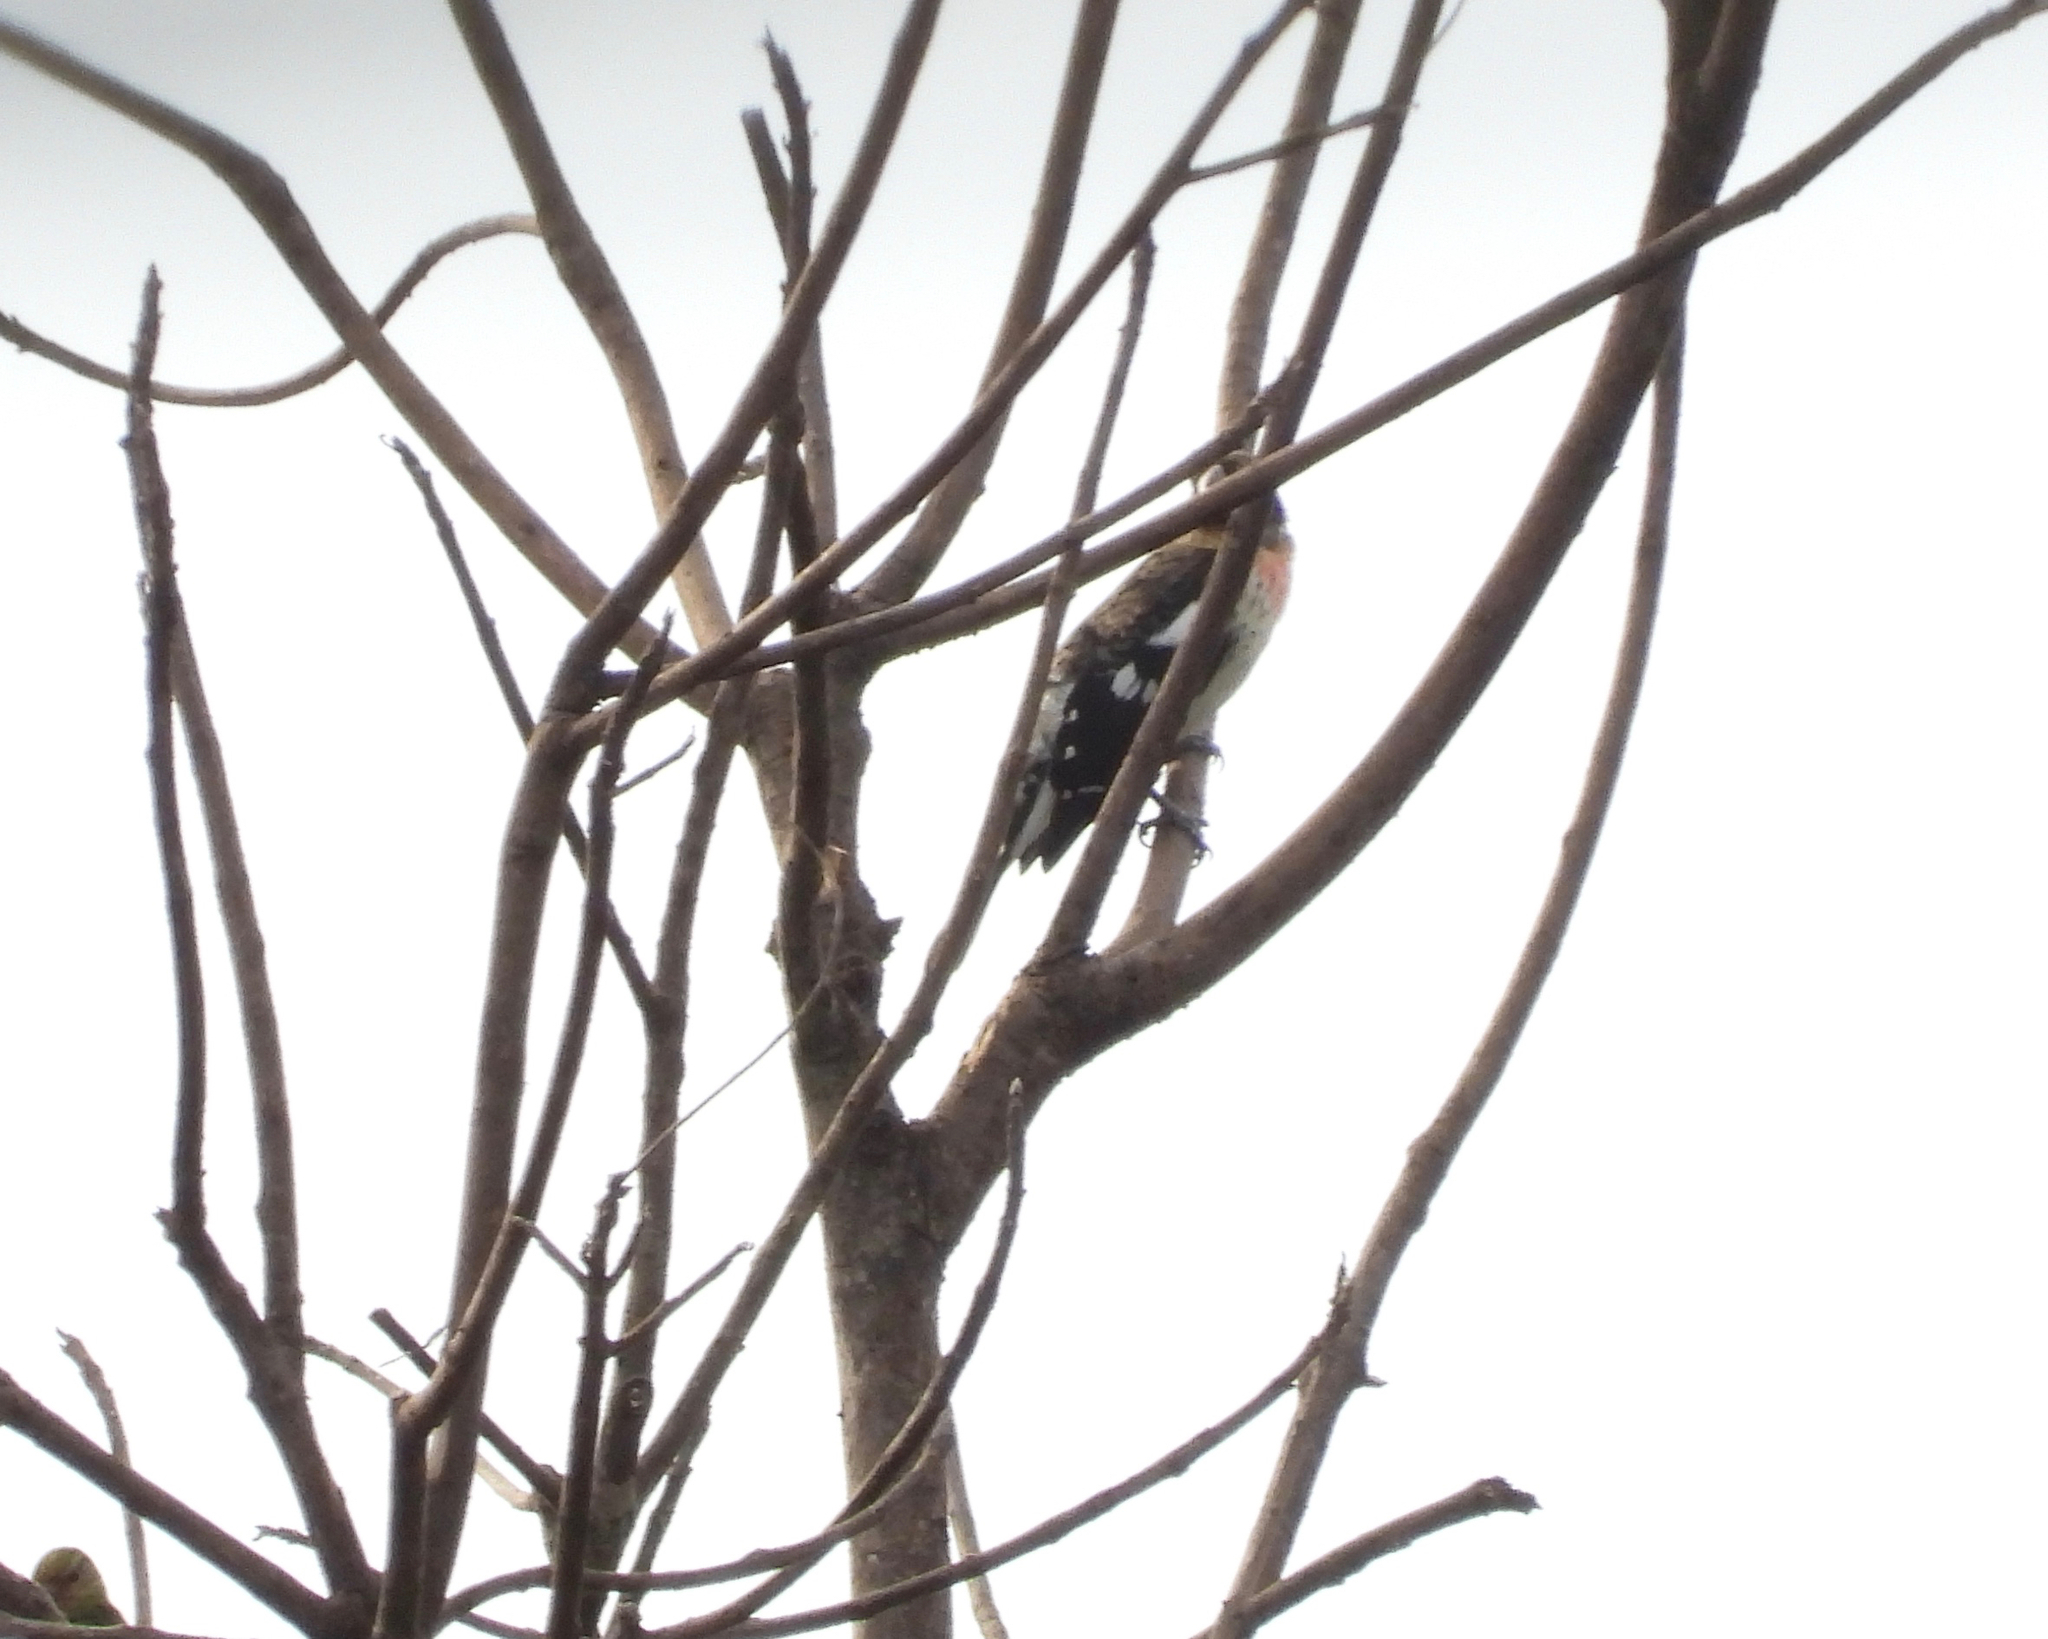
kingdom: Animalia
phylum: Chordata
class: Aves
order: Passeriformes
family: Cardinalidae
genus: Pheucticus
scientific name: Pheucticus ludovicianus
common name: Rose-breasted grosbeak
